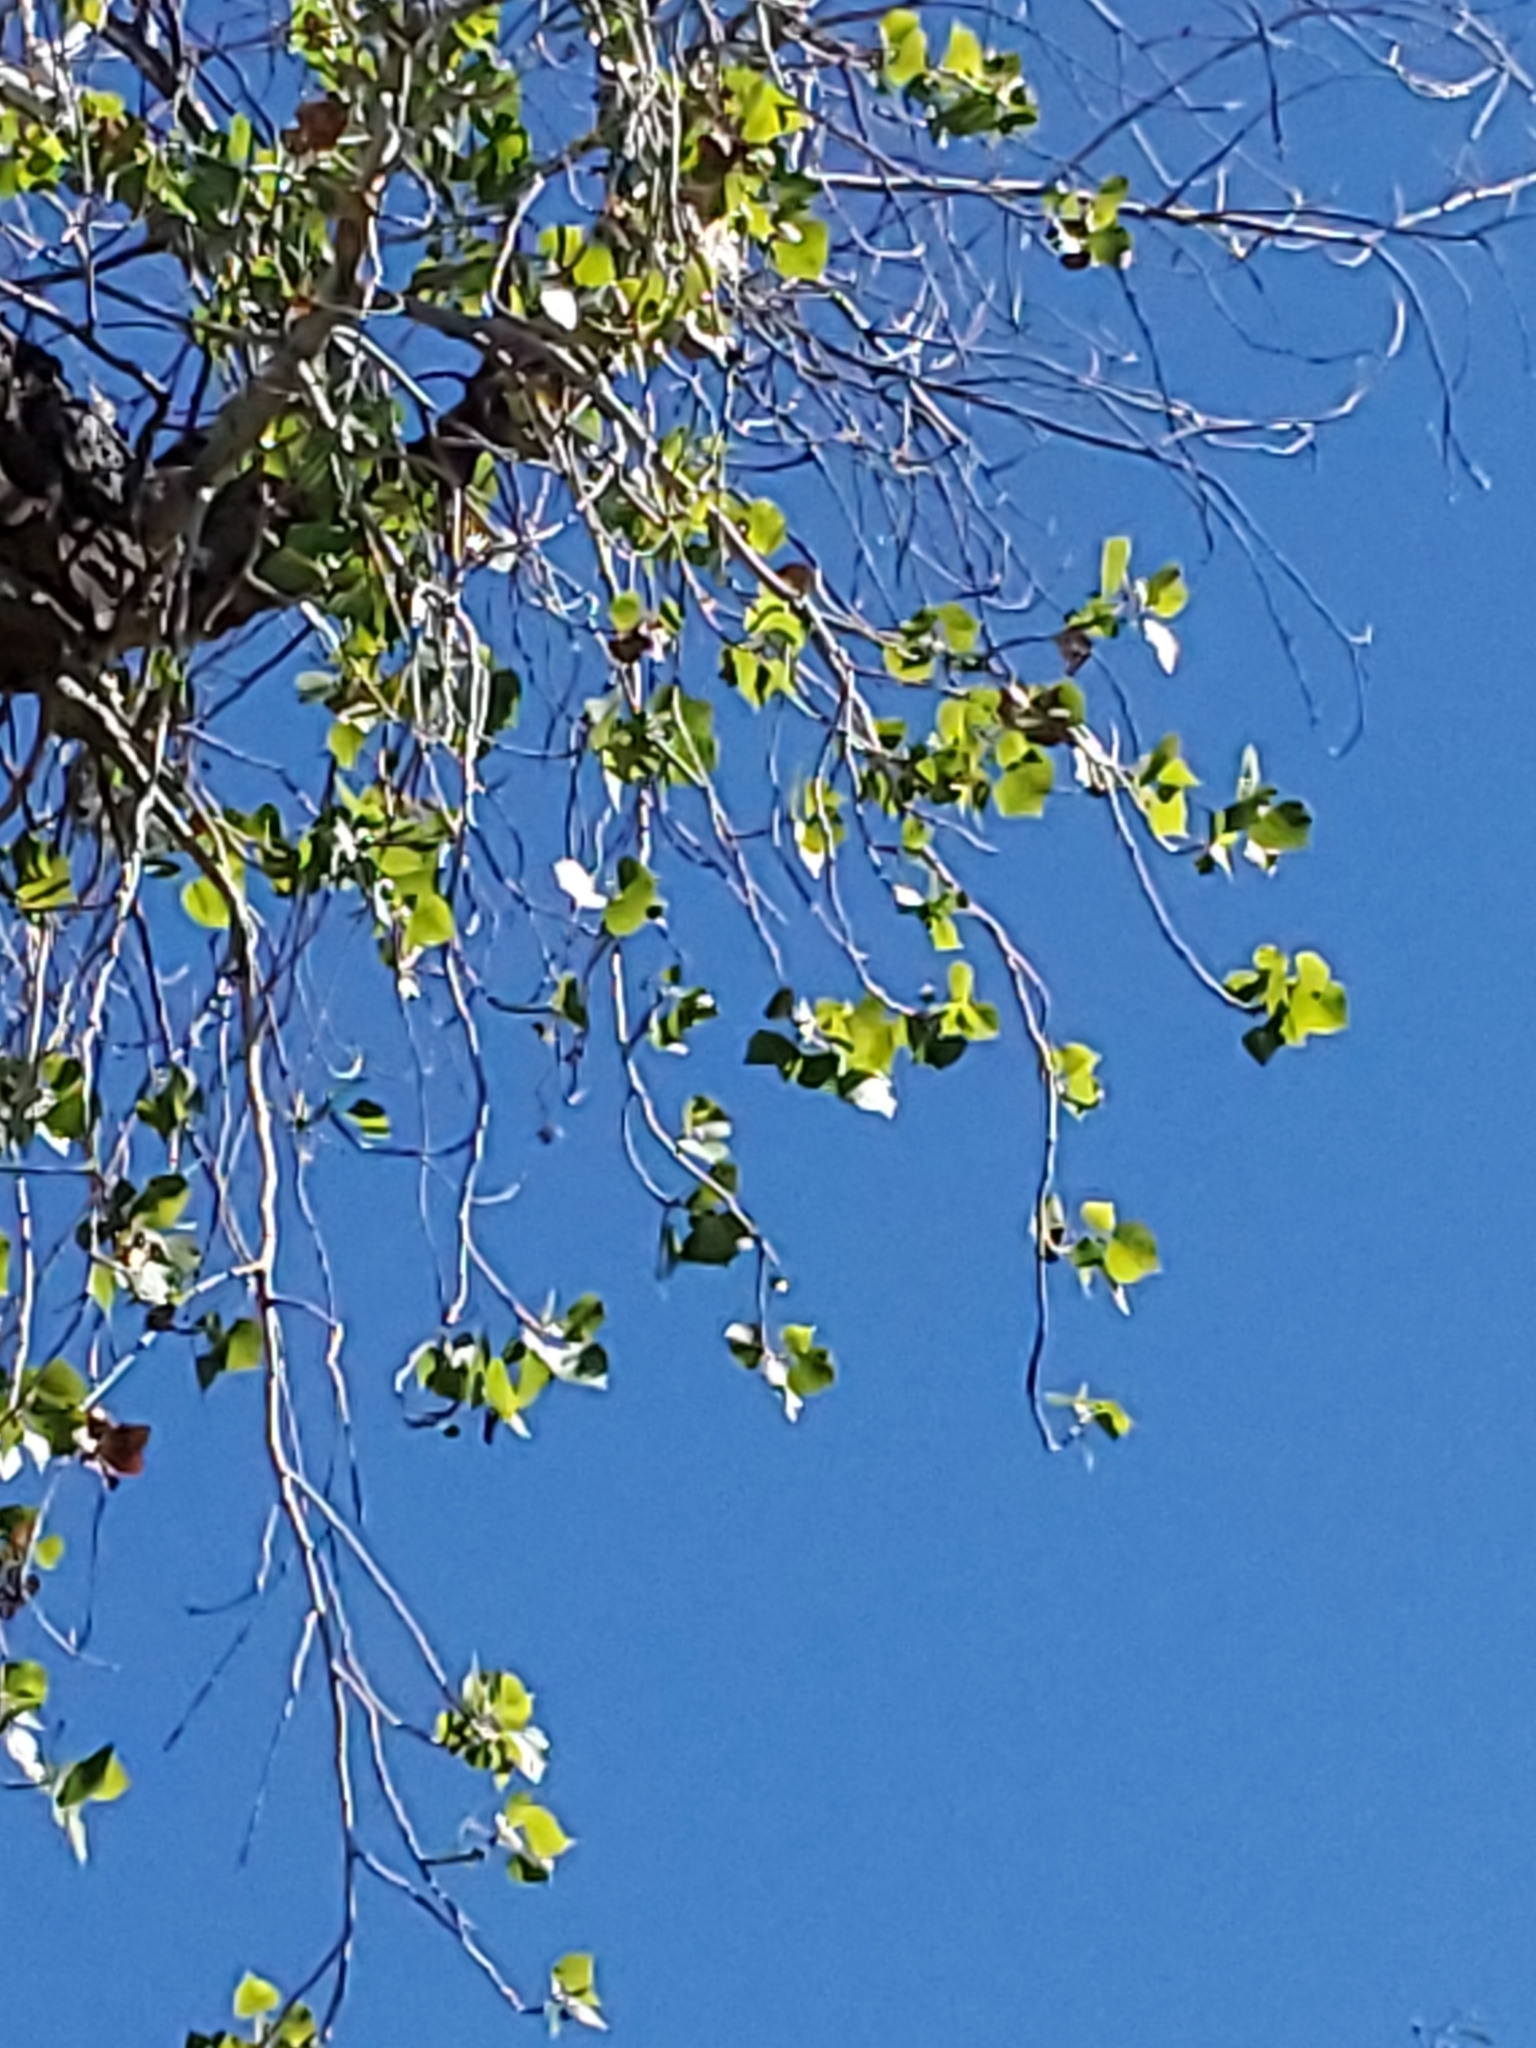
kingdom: Plantae
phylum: Tracheophyta
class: Magnoliopsida
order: Malpighiales
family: Salicaceae
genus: Populus
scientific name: Populus fremontii
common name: Fremont's cottonwood
